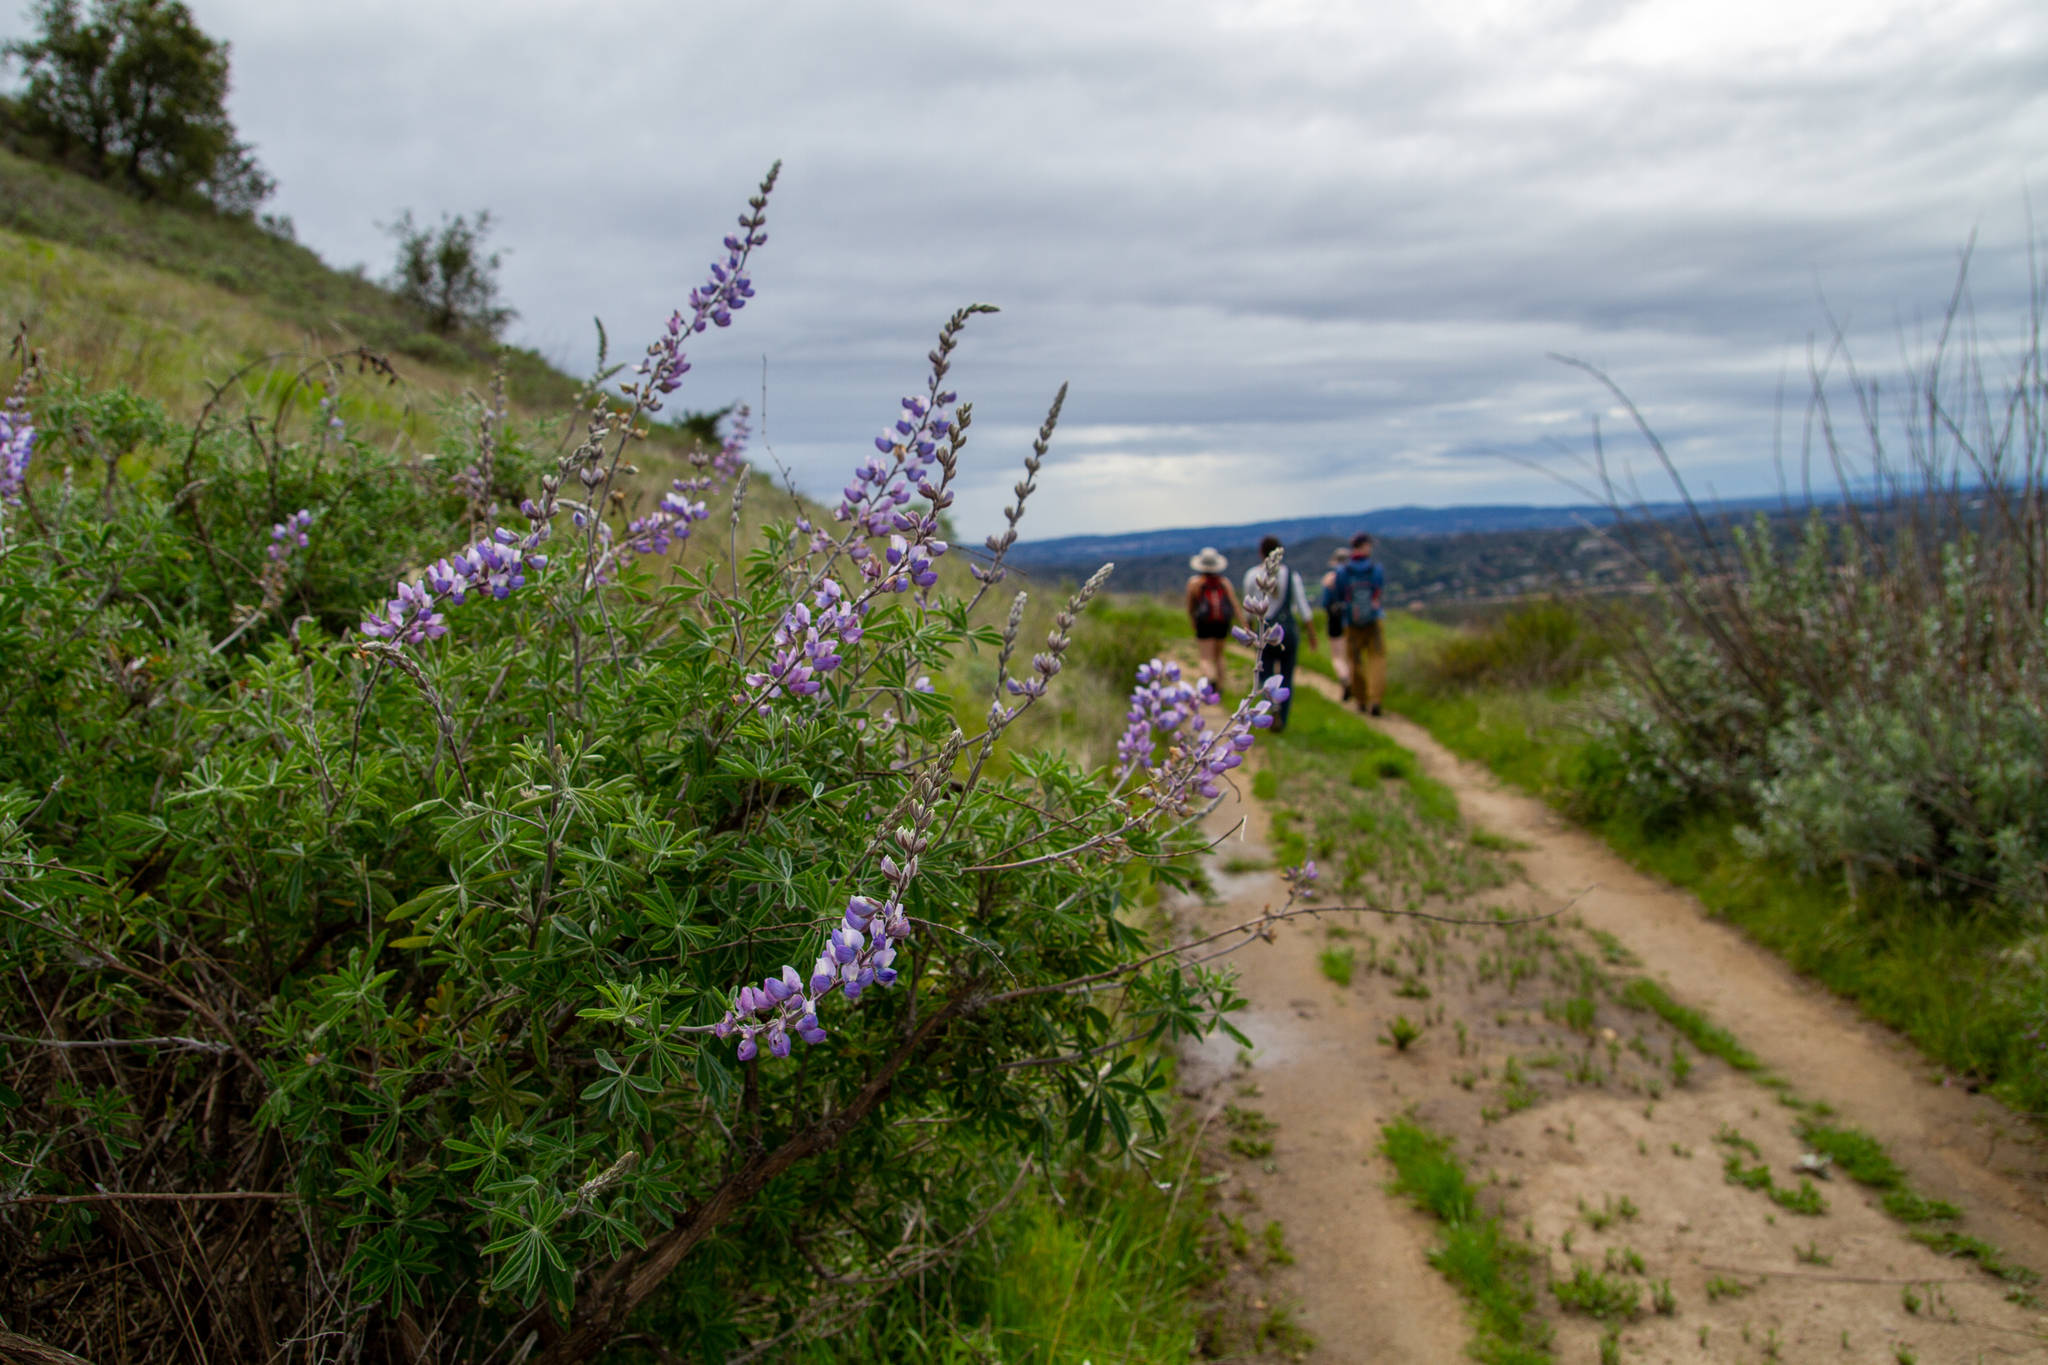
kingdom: Plantae
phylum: Tracheophyta
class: Magnoliopsida
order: Fabales
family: Fabaceae
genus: Lupinus
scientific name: Lupinus albifrons
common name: Foothill lupine
